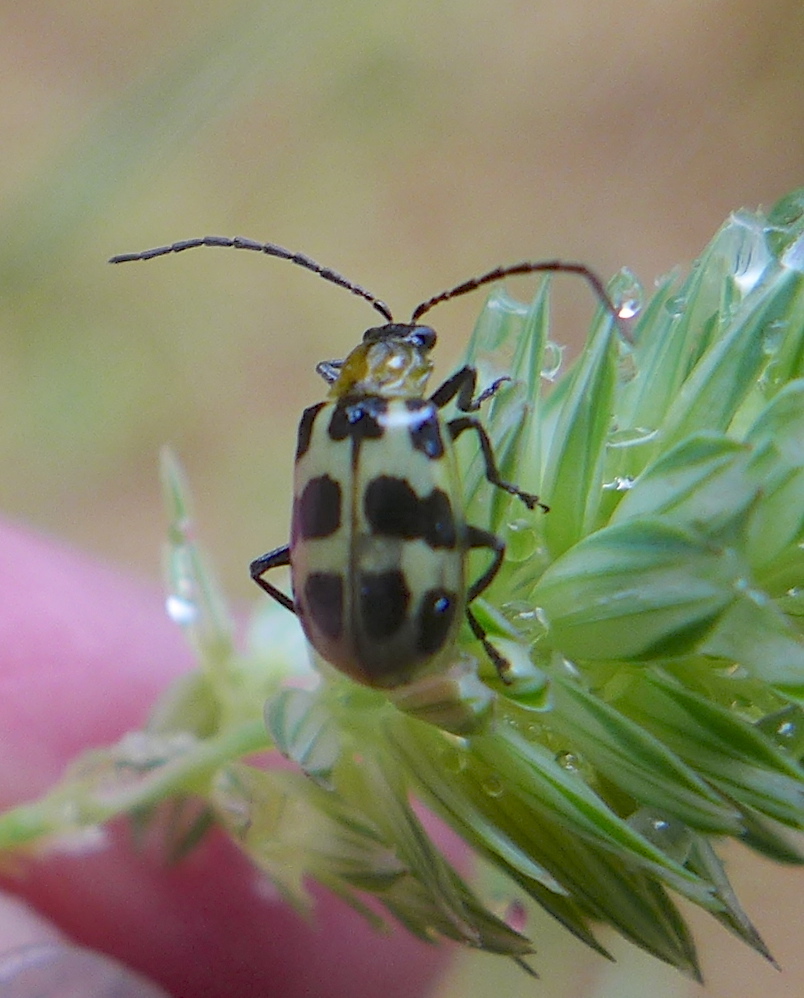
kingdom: Animalia
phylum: Arthropoda
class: Insecta
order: Coleoptera
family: Chrysomelidae
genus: Diabrotica
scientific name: Diabrotica undecimpunctata
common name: Spotted cucumber beetle
